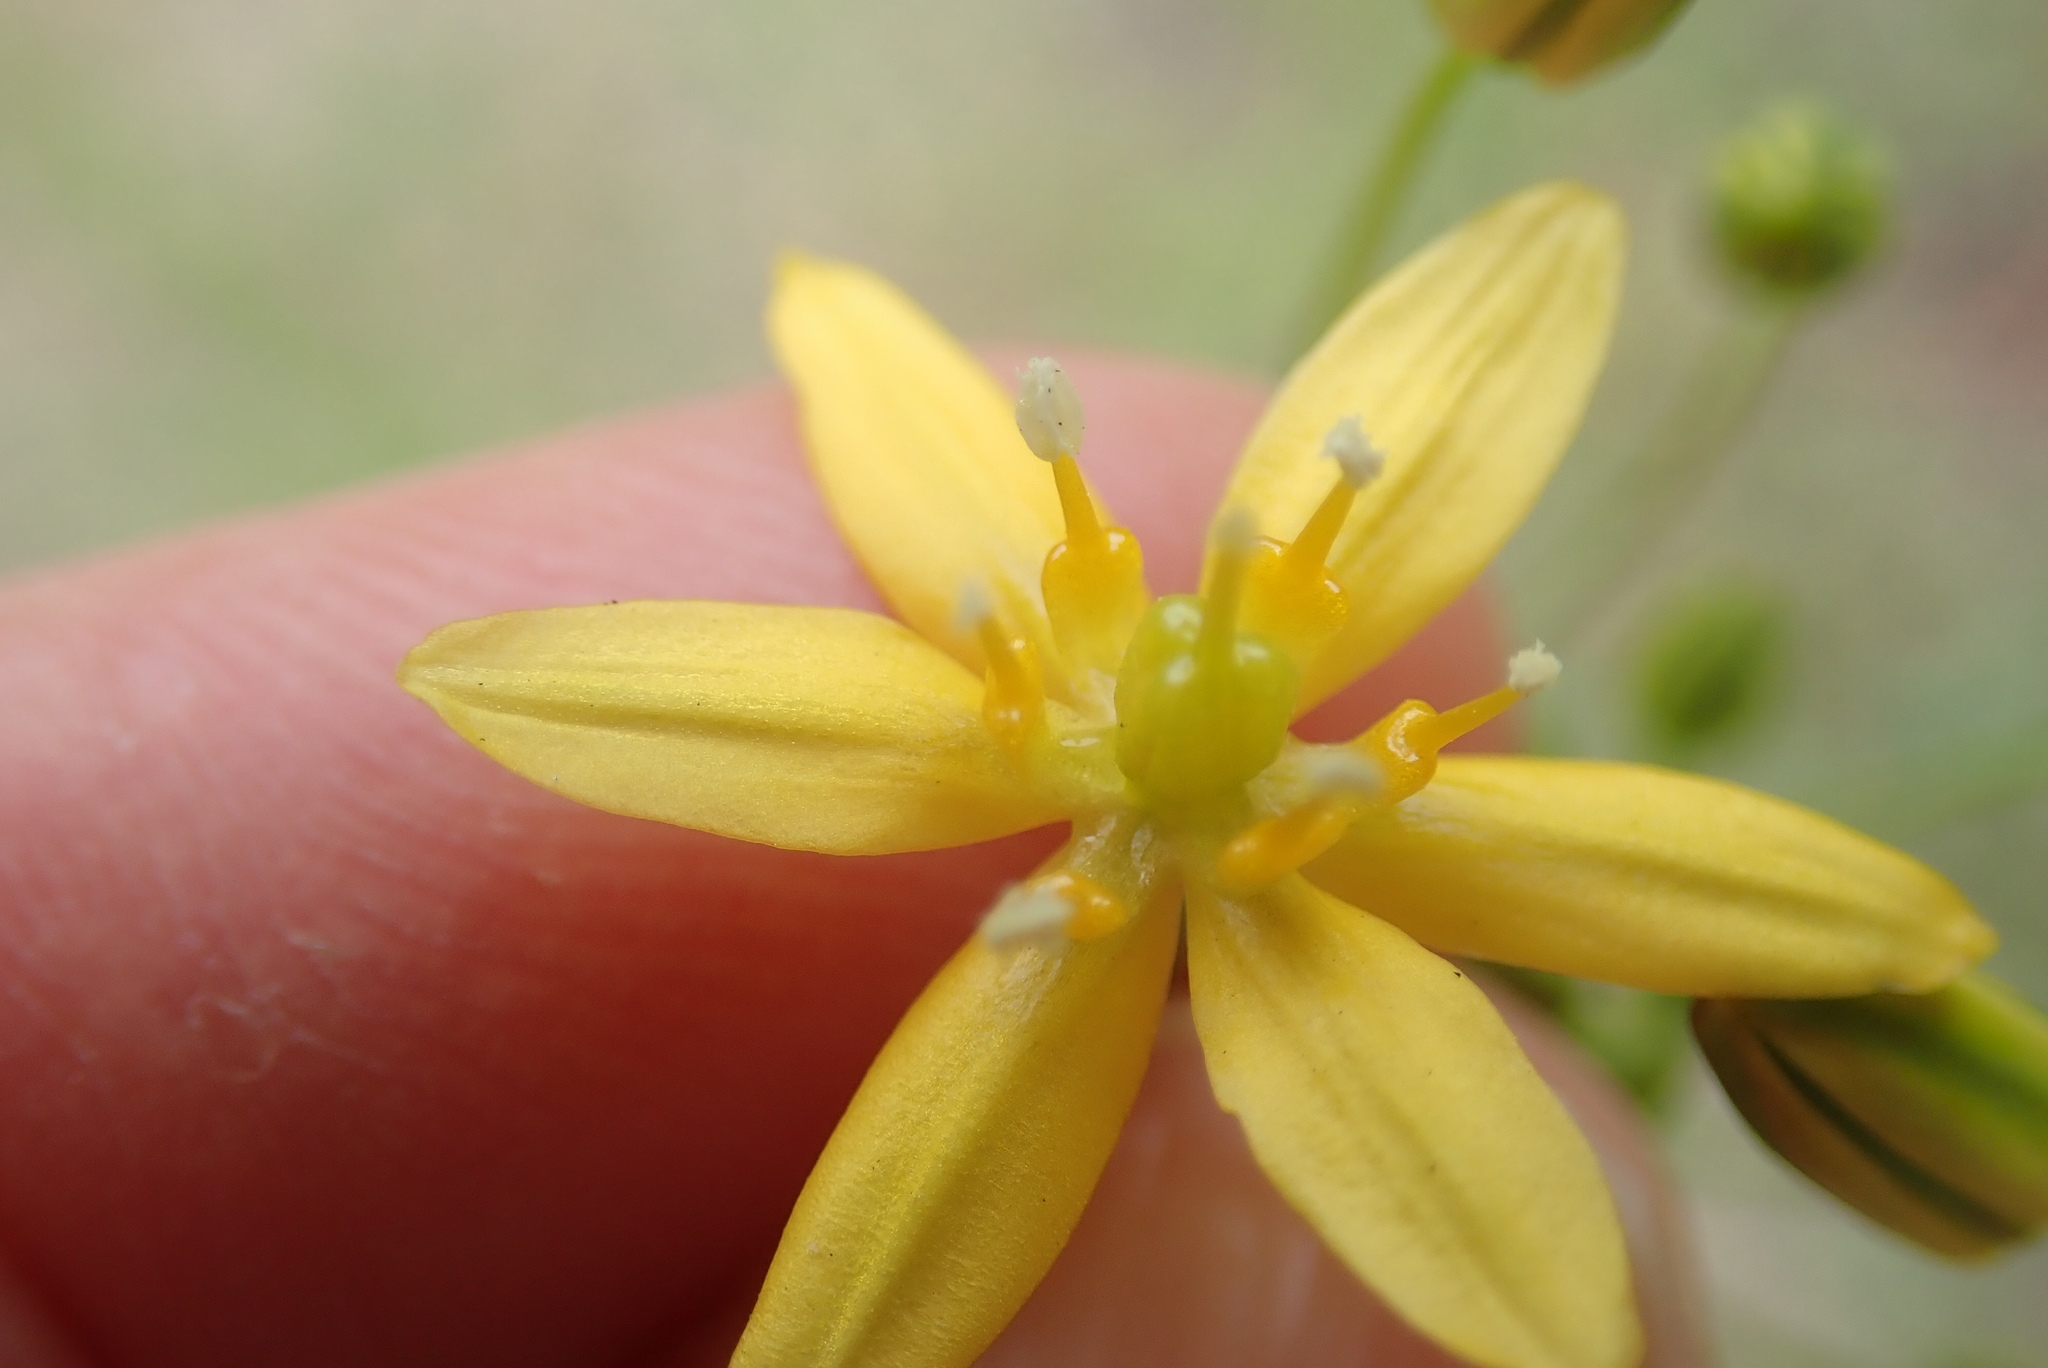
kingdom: Plantae
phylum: Tracheophyta
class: Liliopsida
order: Asparagales
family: Asparagaceae
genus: Bloomeria
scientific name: Bloomeria clevelandii
